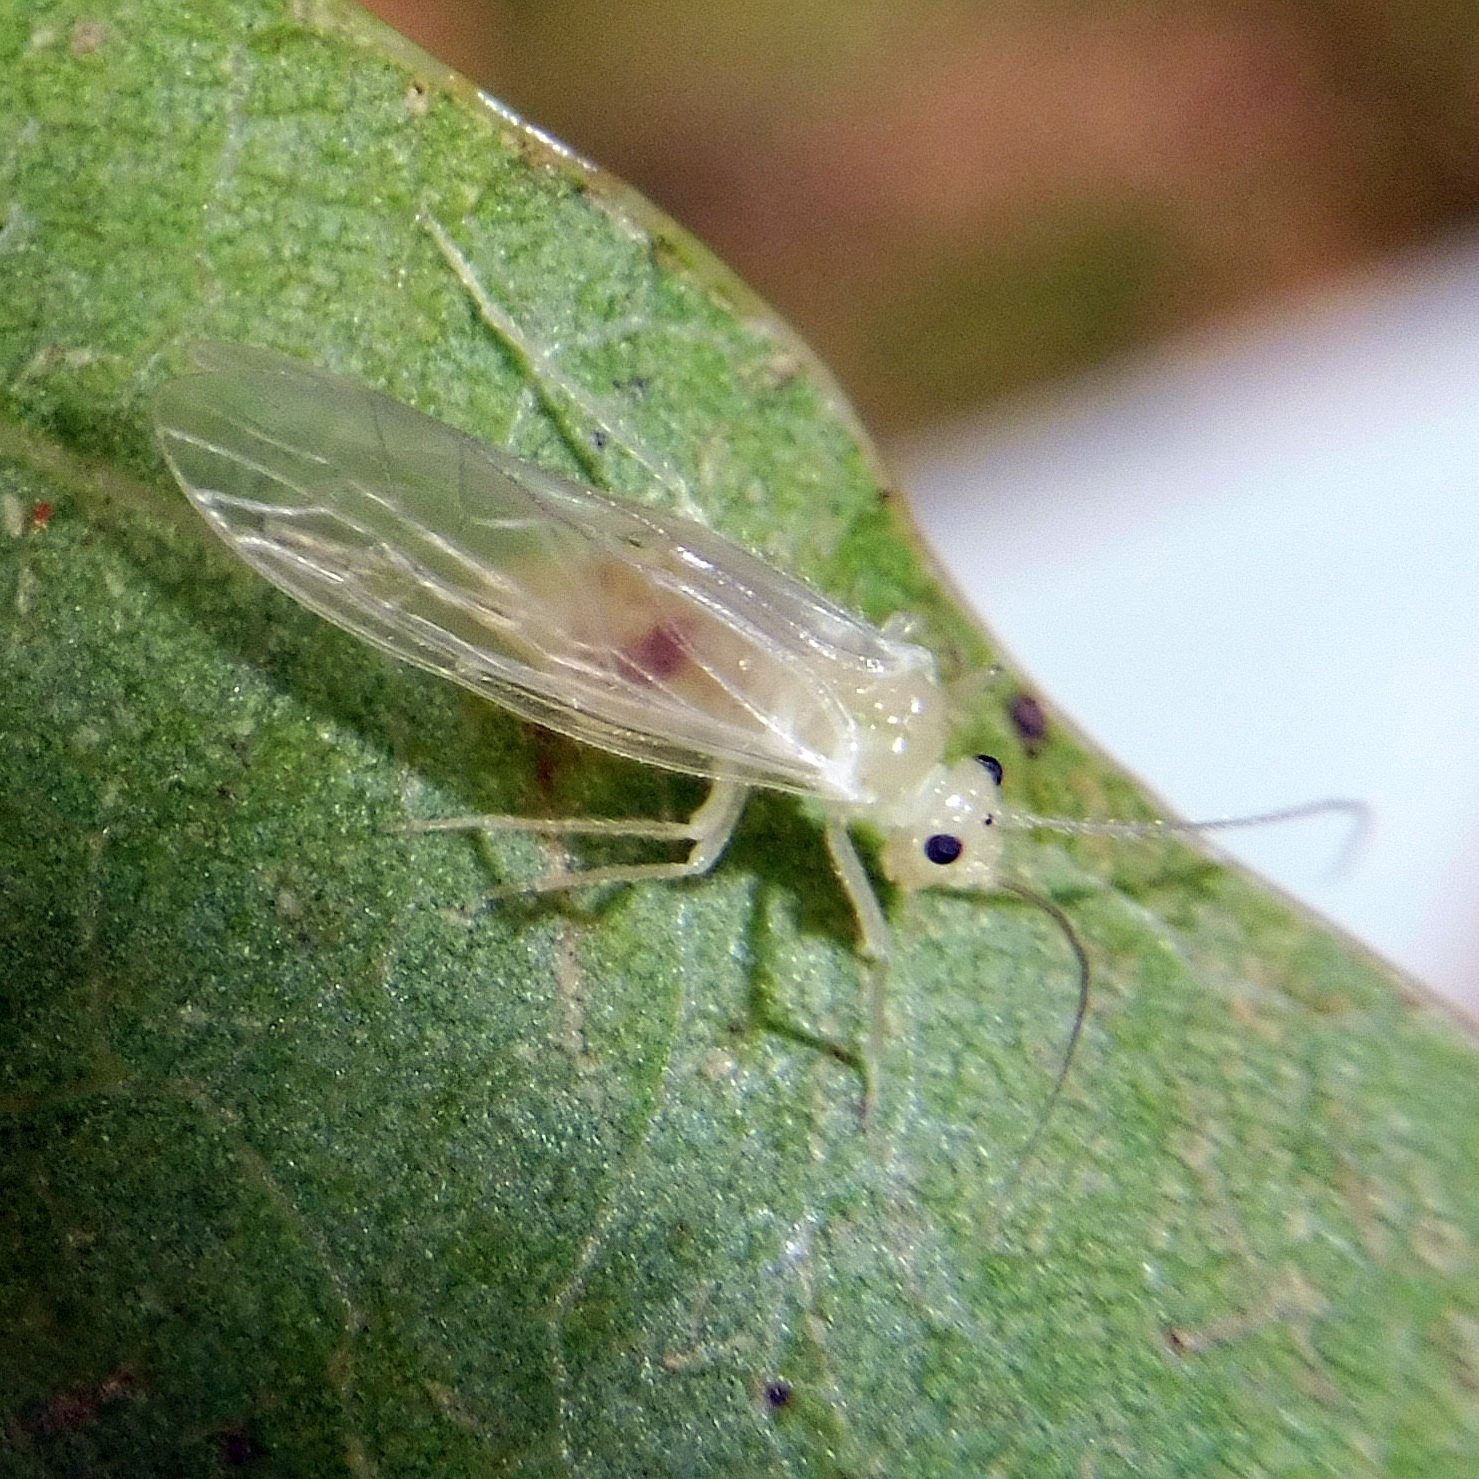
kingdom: Animalia
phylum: Arthropoda
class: Insecta
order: Psocodea
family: Stenopsocidae
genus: Stenopsocus
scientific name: Stenopsocus immaculatus
